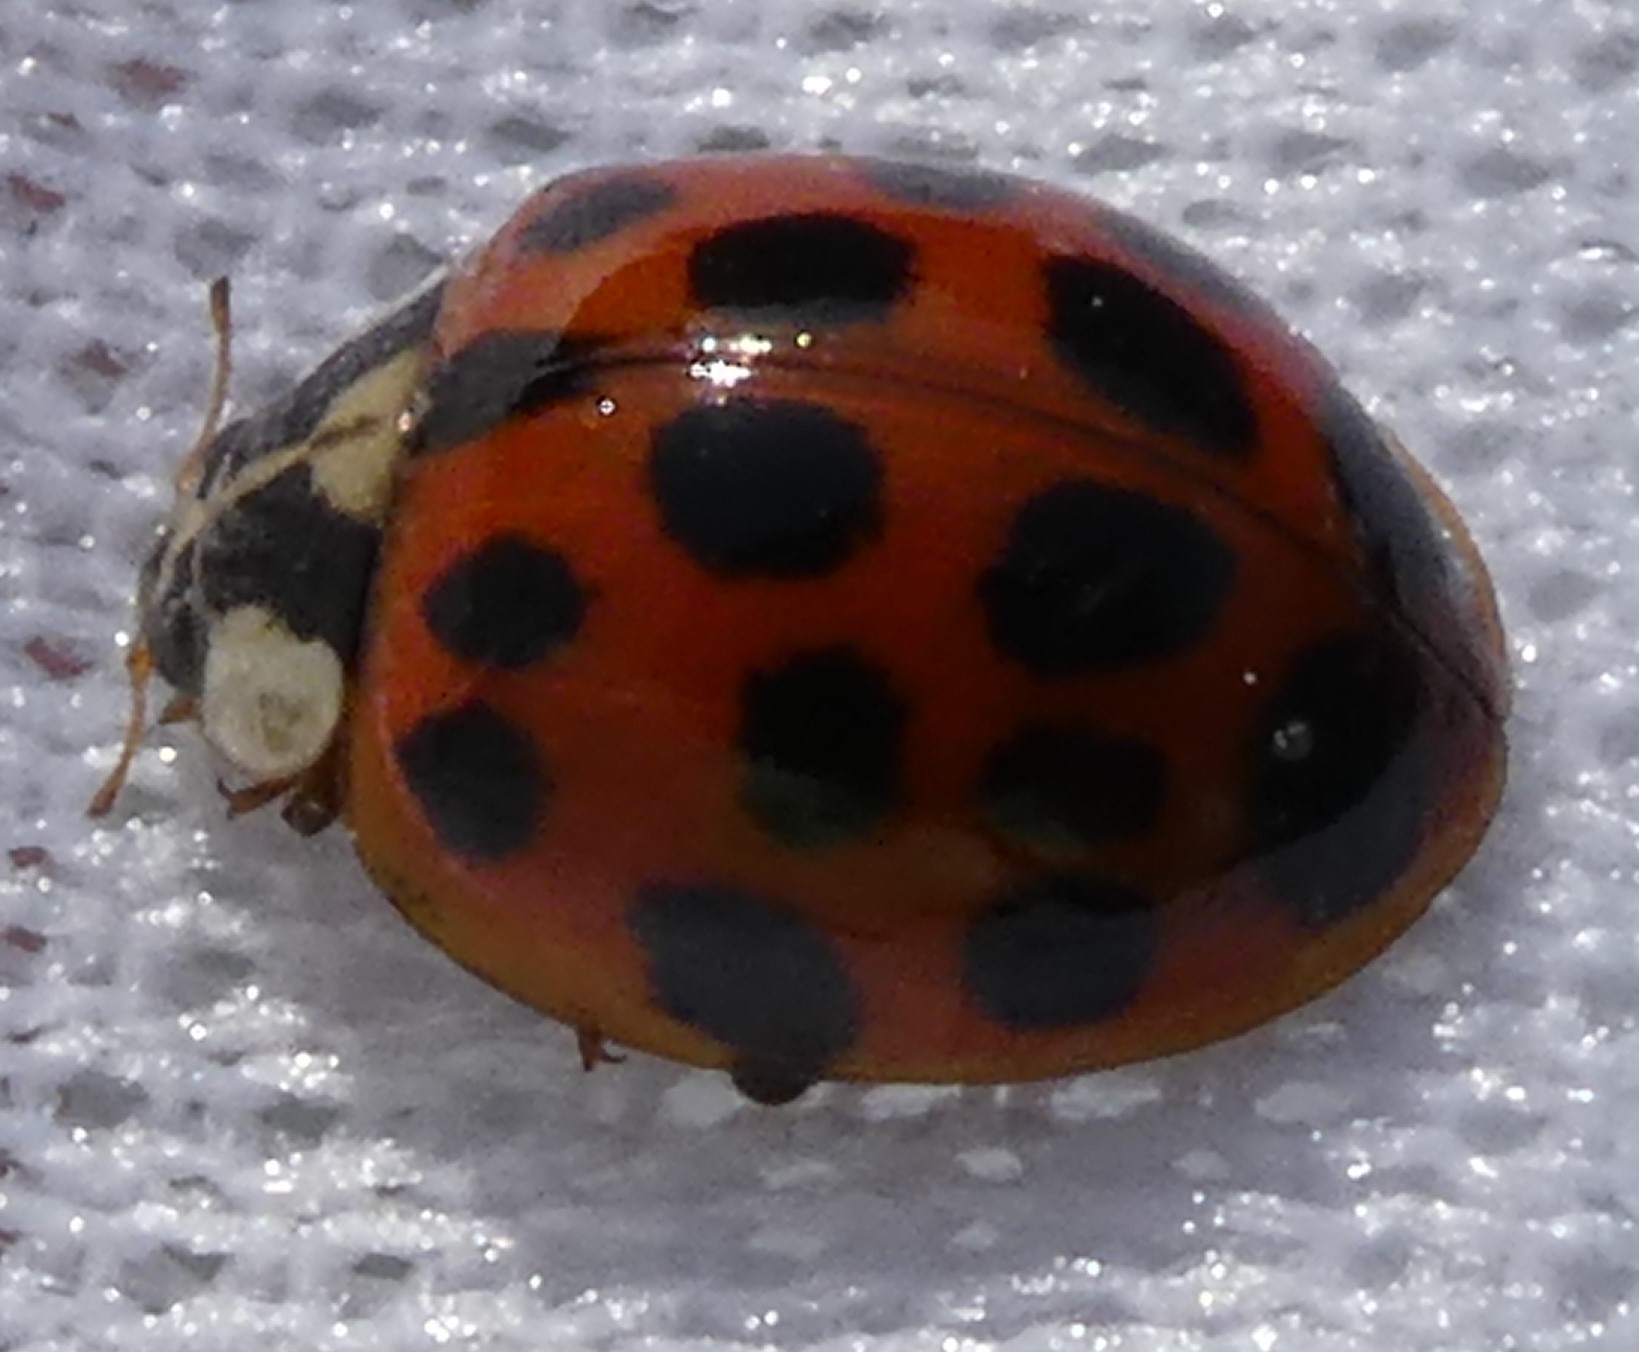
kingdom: Animalia
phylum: Arthropoda
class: Insecta
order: Coleoptera
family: Coccinellidae
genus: Harmonia
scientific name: Harmonia axyridis
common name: Harlequin ladybird
